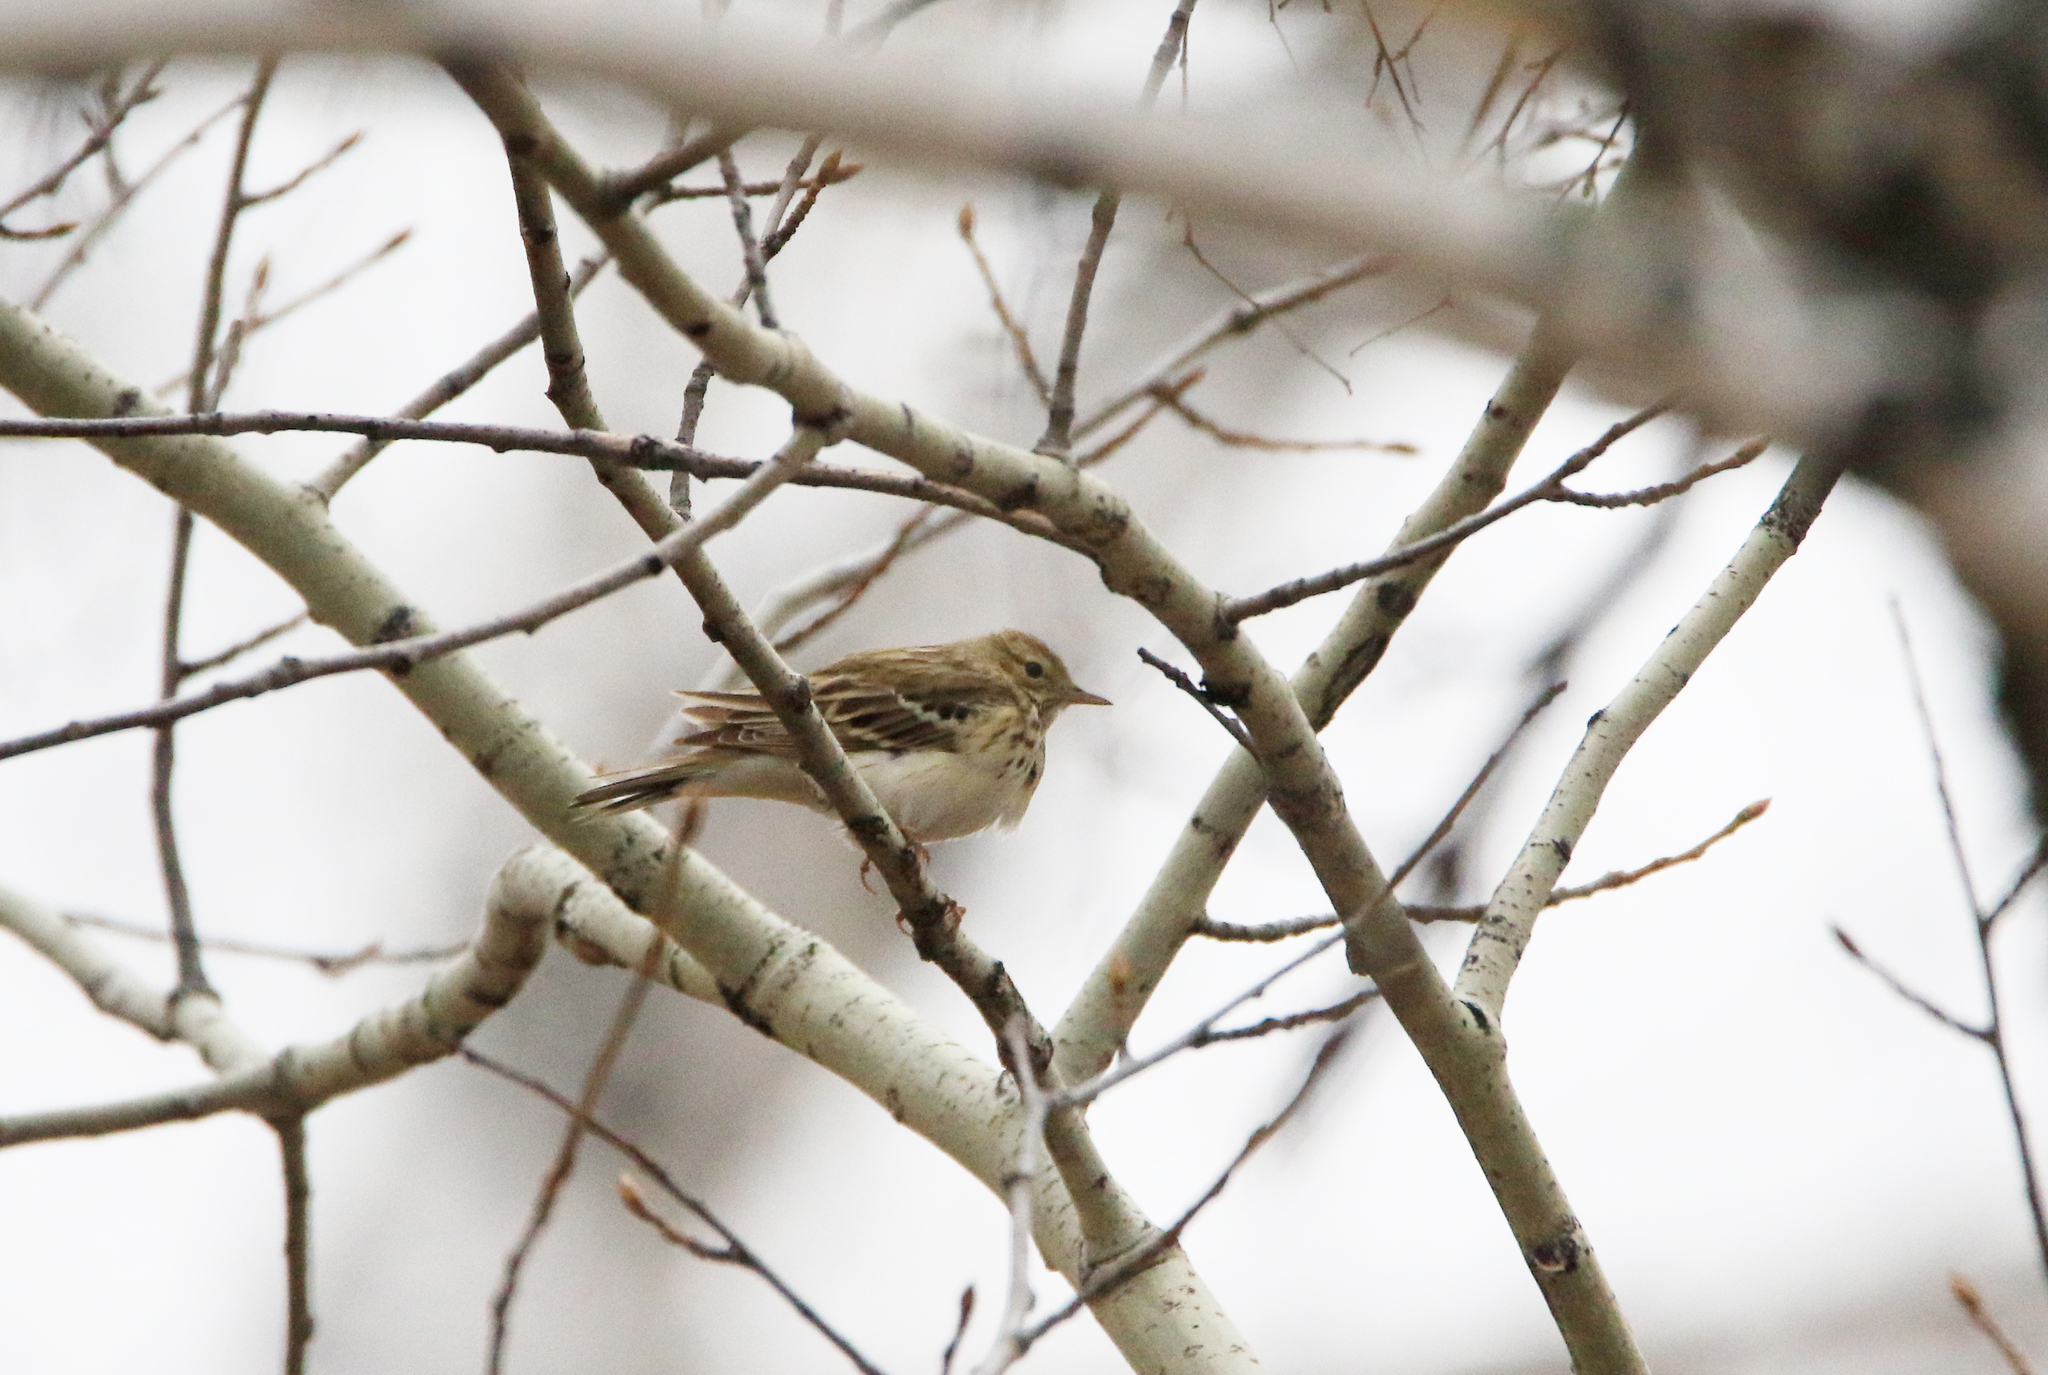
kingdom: Animalia
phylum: Chordata
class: Aves
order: Passeriformes
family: Motacillidae
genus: Anthus
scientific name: Anthus trivialis
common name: Tree pipit
